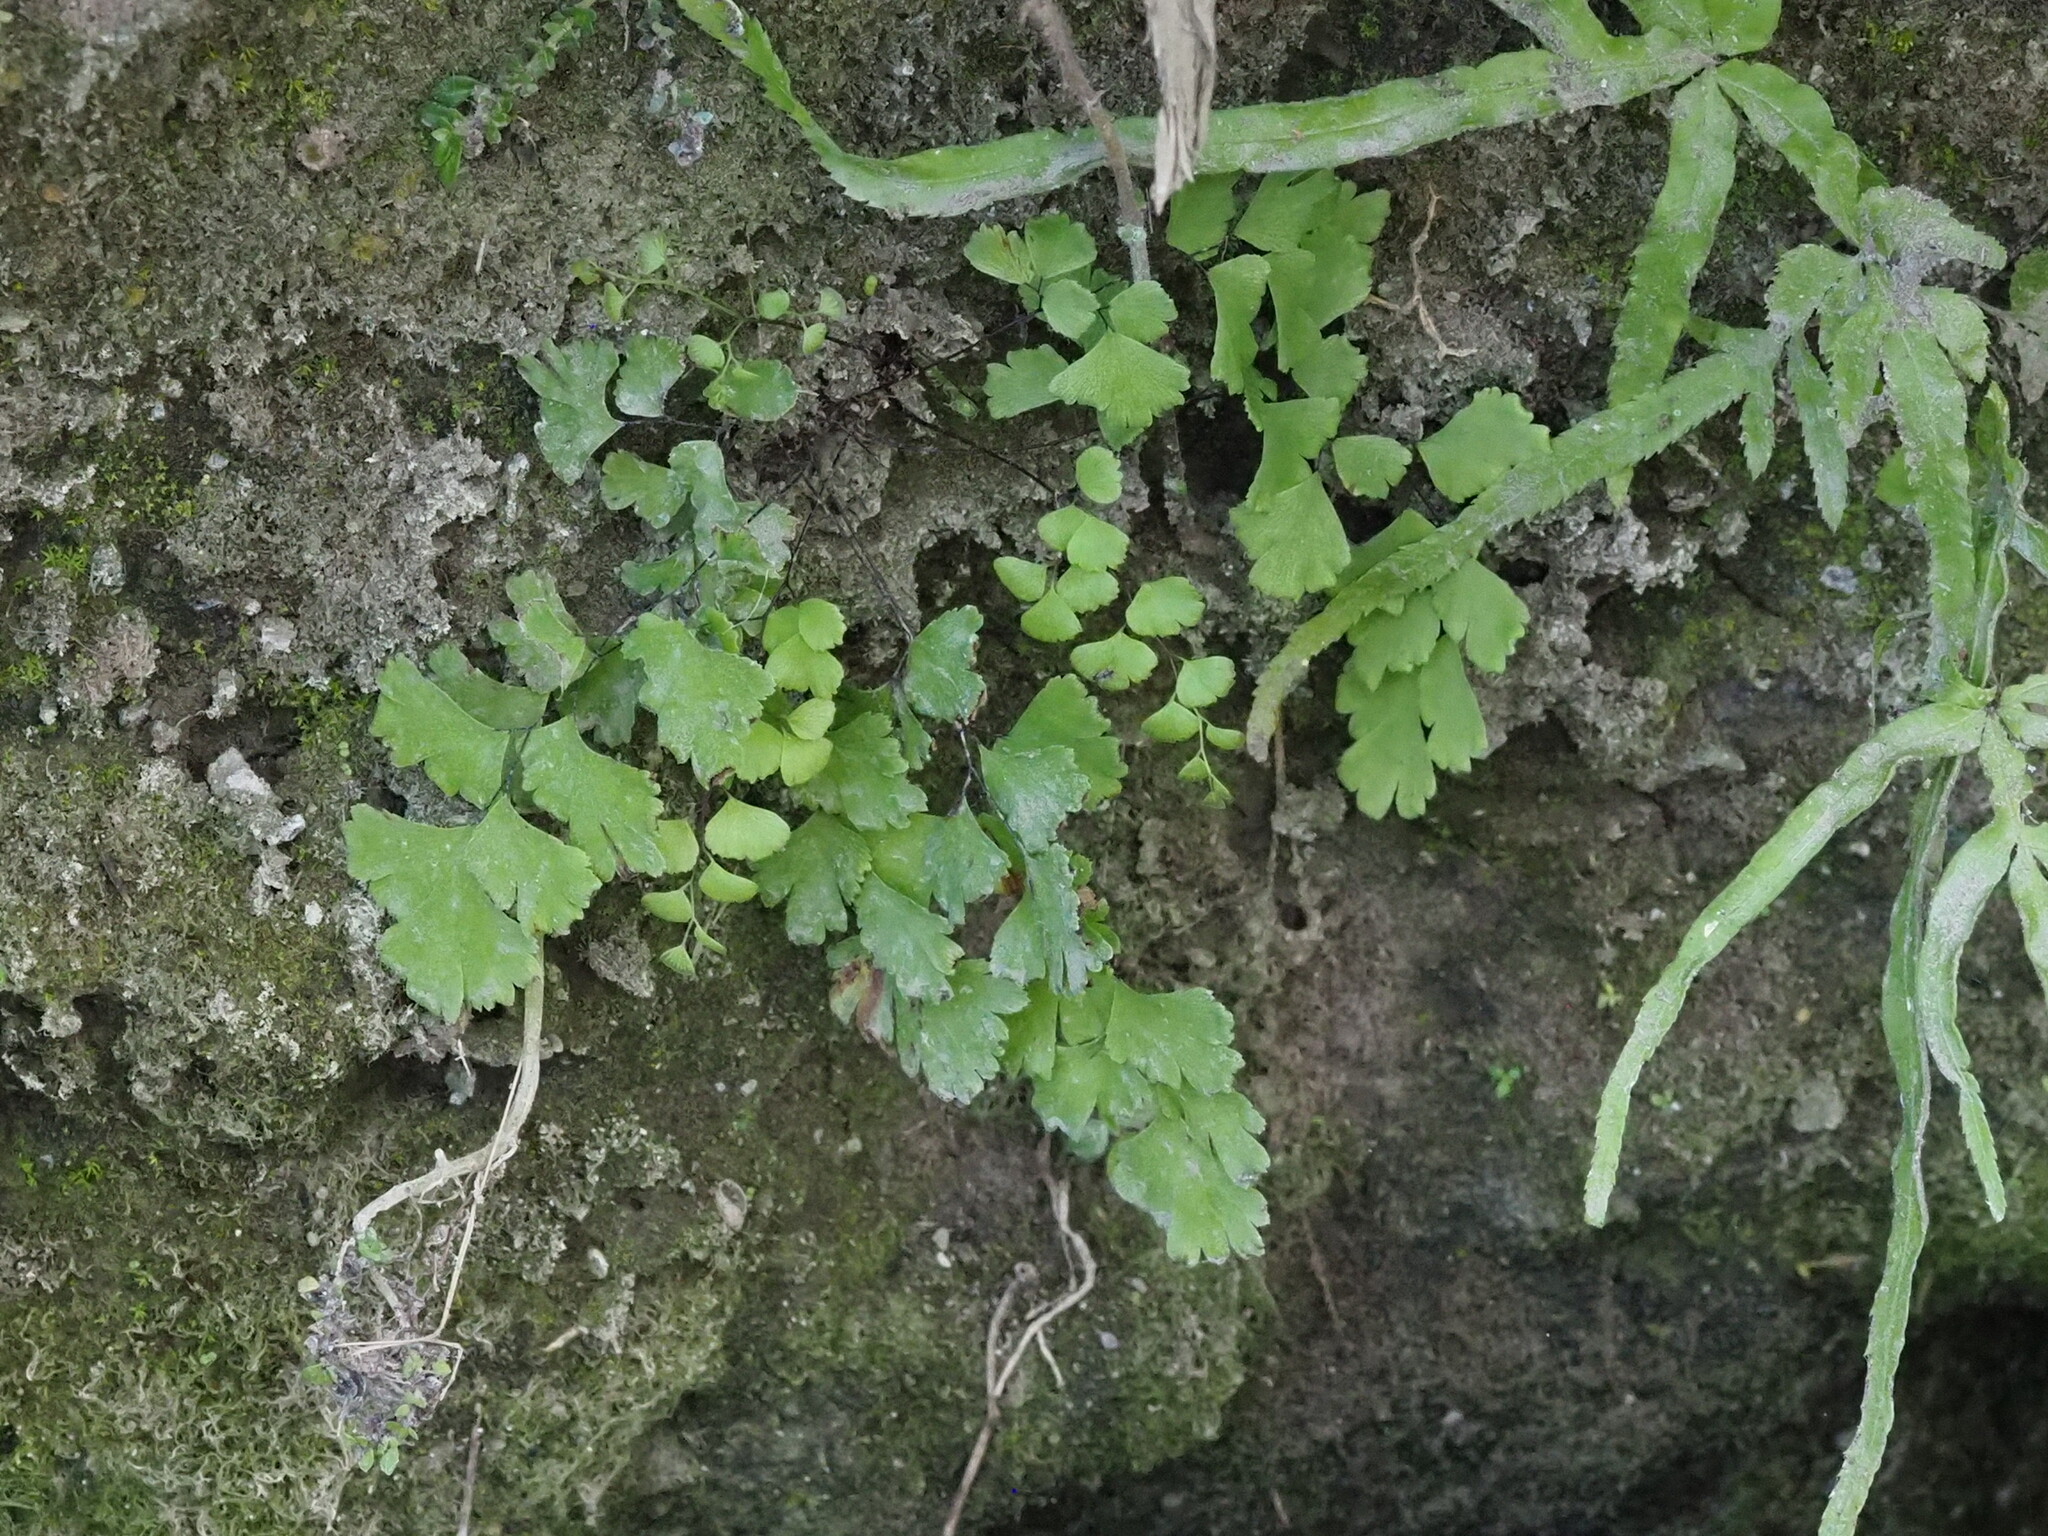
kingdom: Plantae
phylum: Tracheophyta
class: Polypodiopsida
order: Polypodiales
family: Pteridaceae
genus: Adiantum
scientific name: Adiantum capillus-veneris
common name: Maidenhair fern
